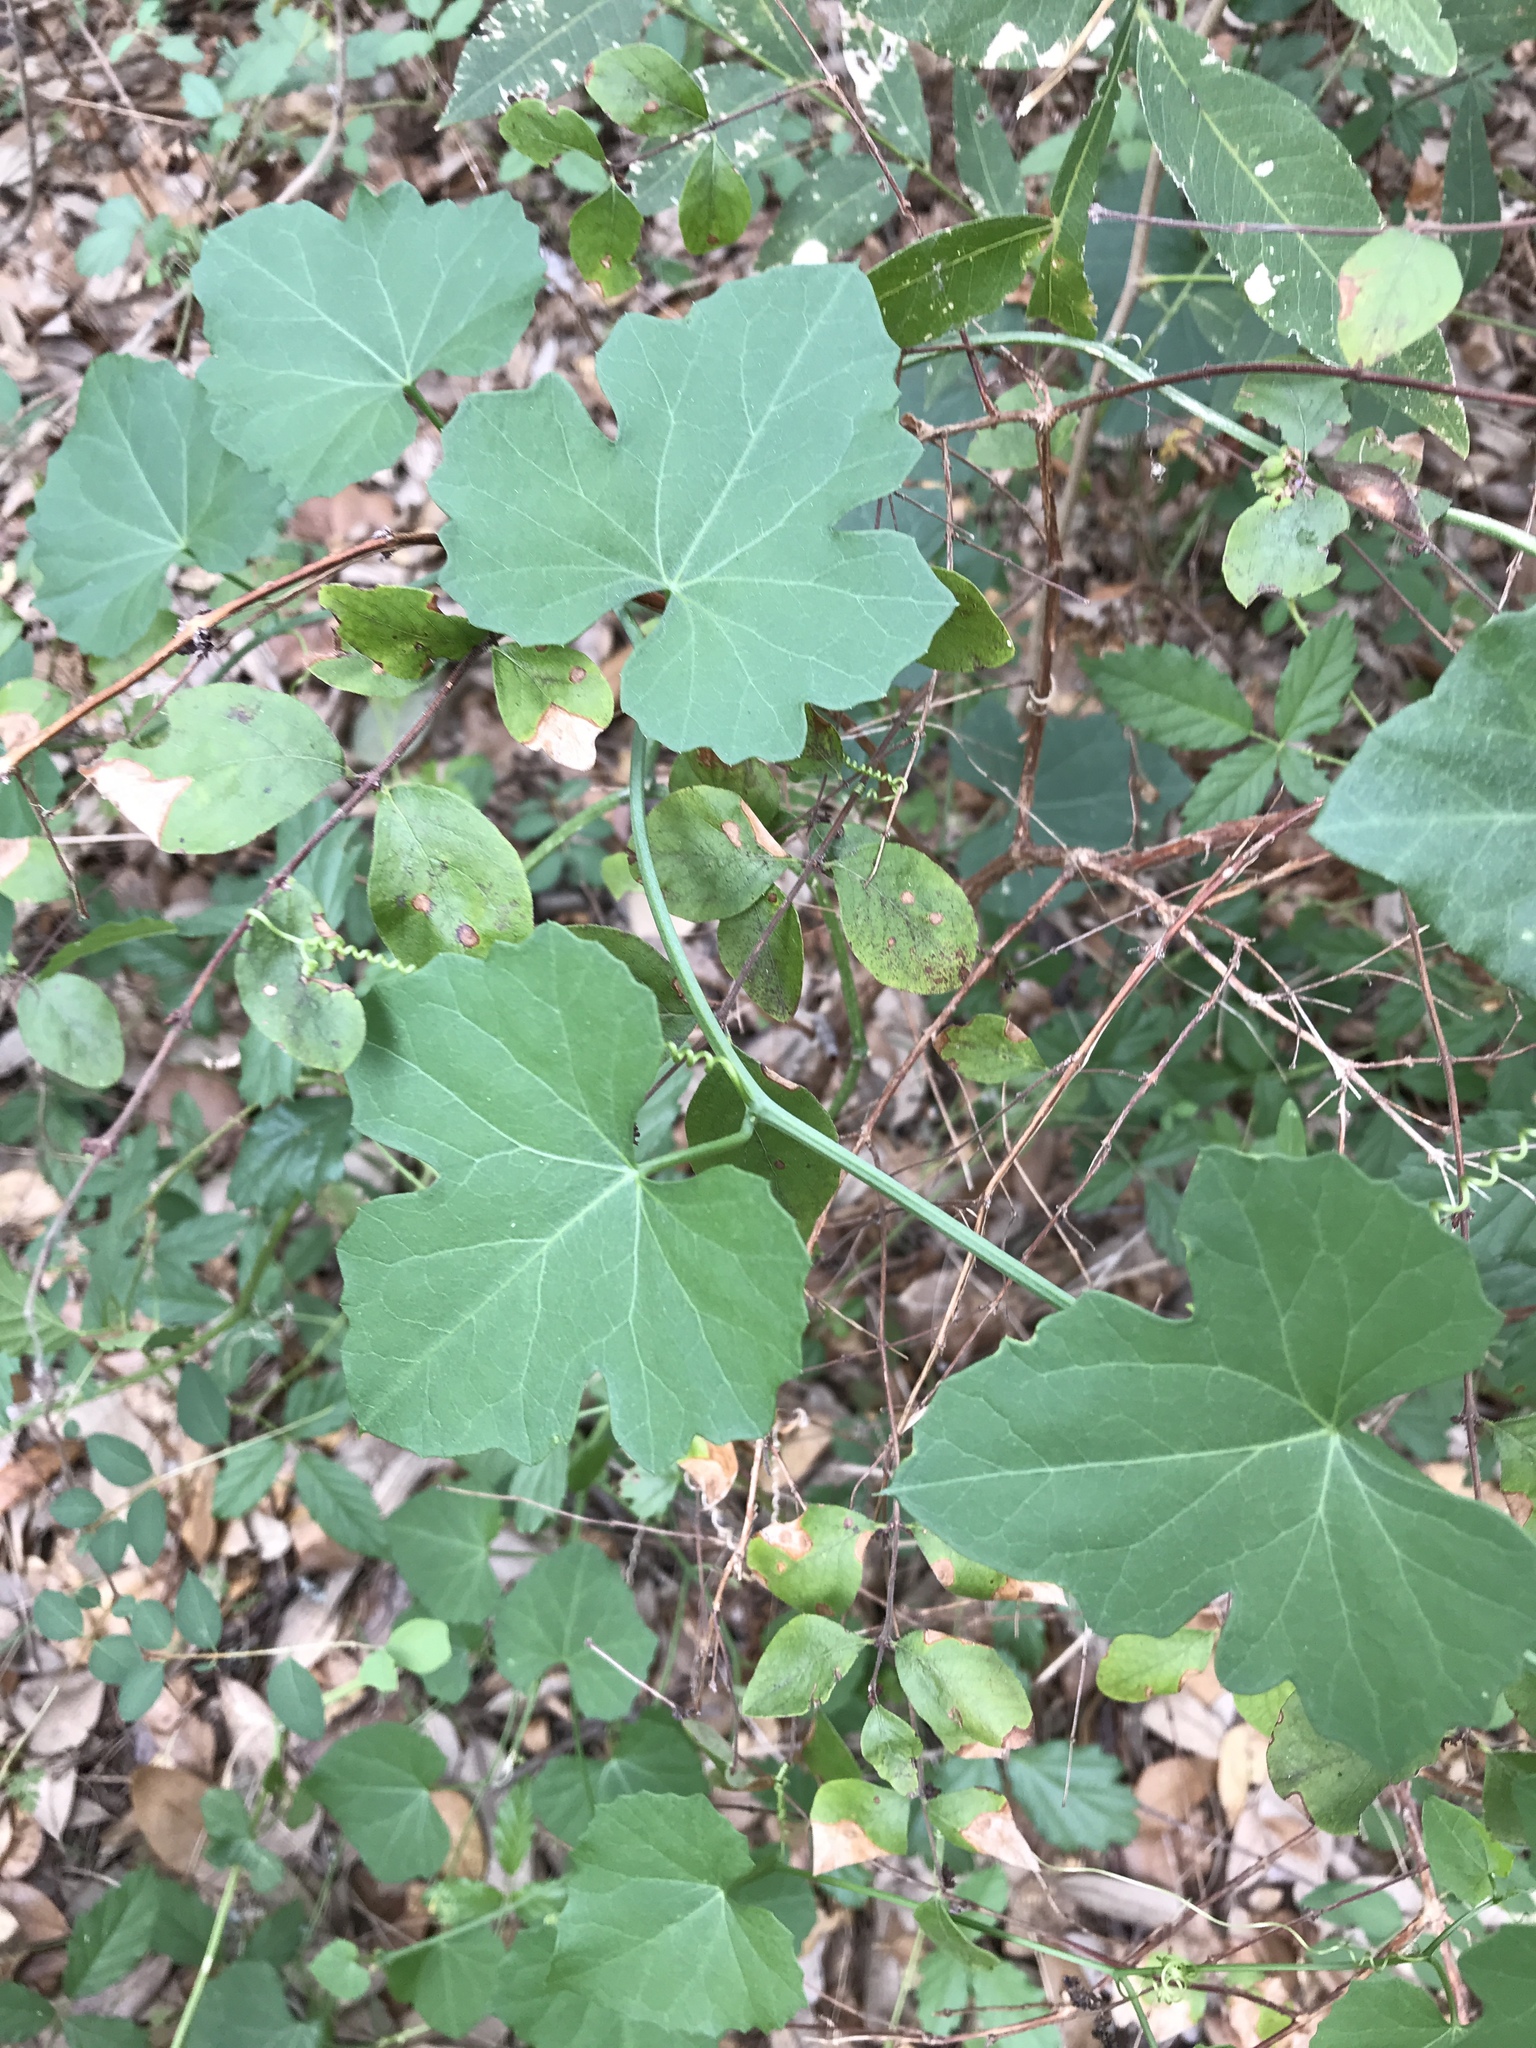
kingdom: Plantae
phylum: Tracheophyta
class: Magnoliopsida
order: Cucurbitales
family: Cucurbitaceae
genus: Ibervillea
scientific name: Ibervillea lindheimeri
